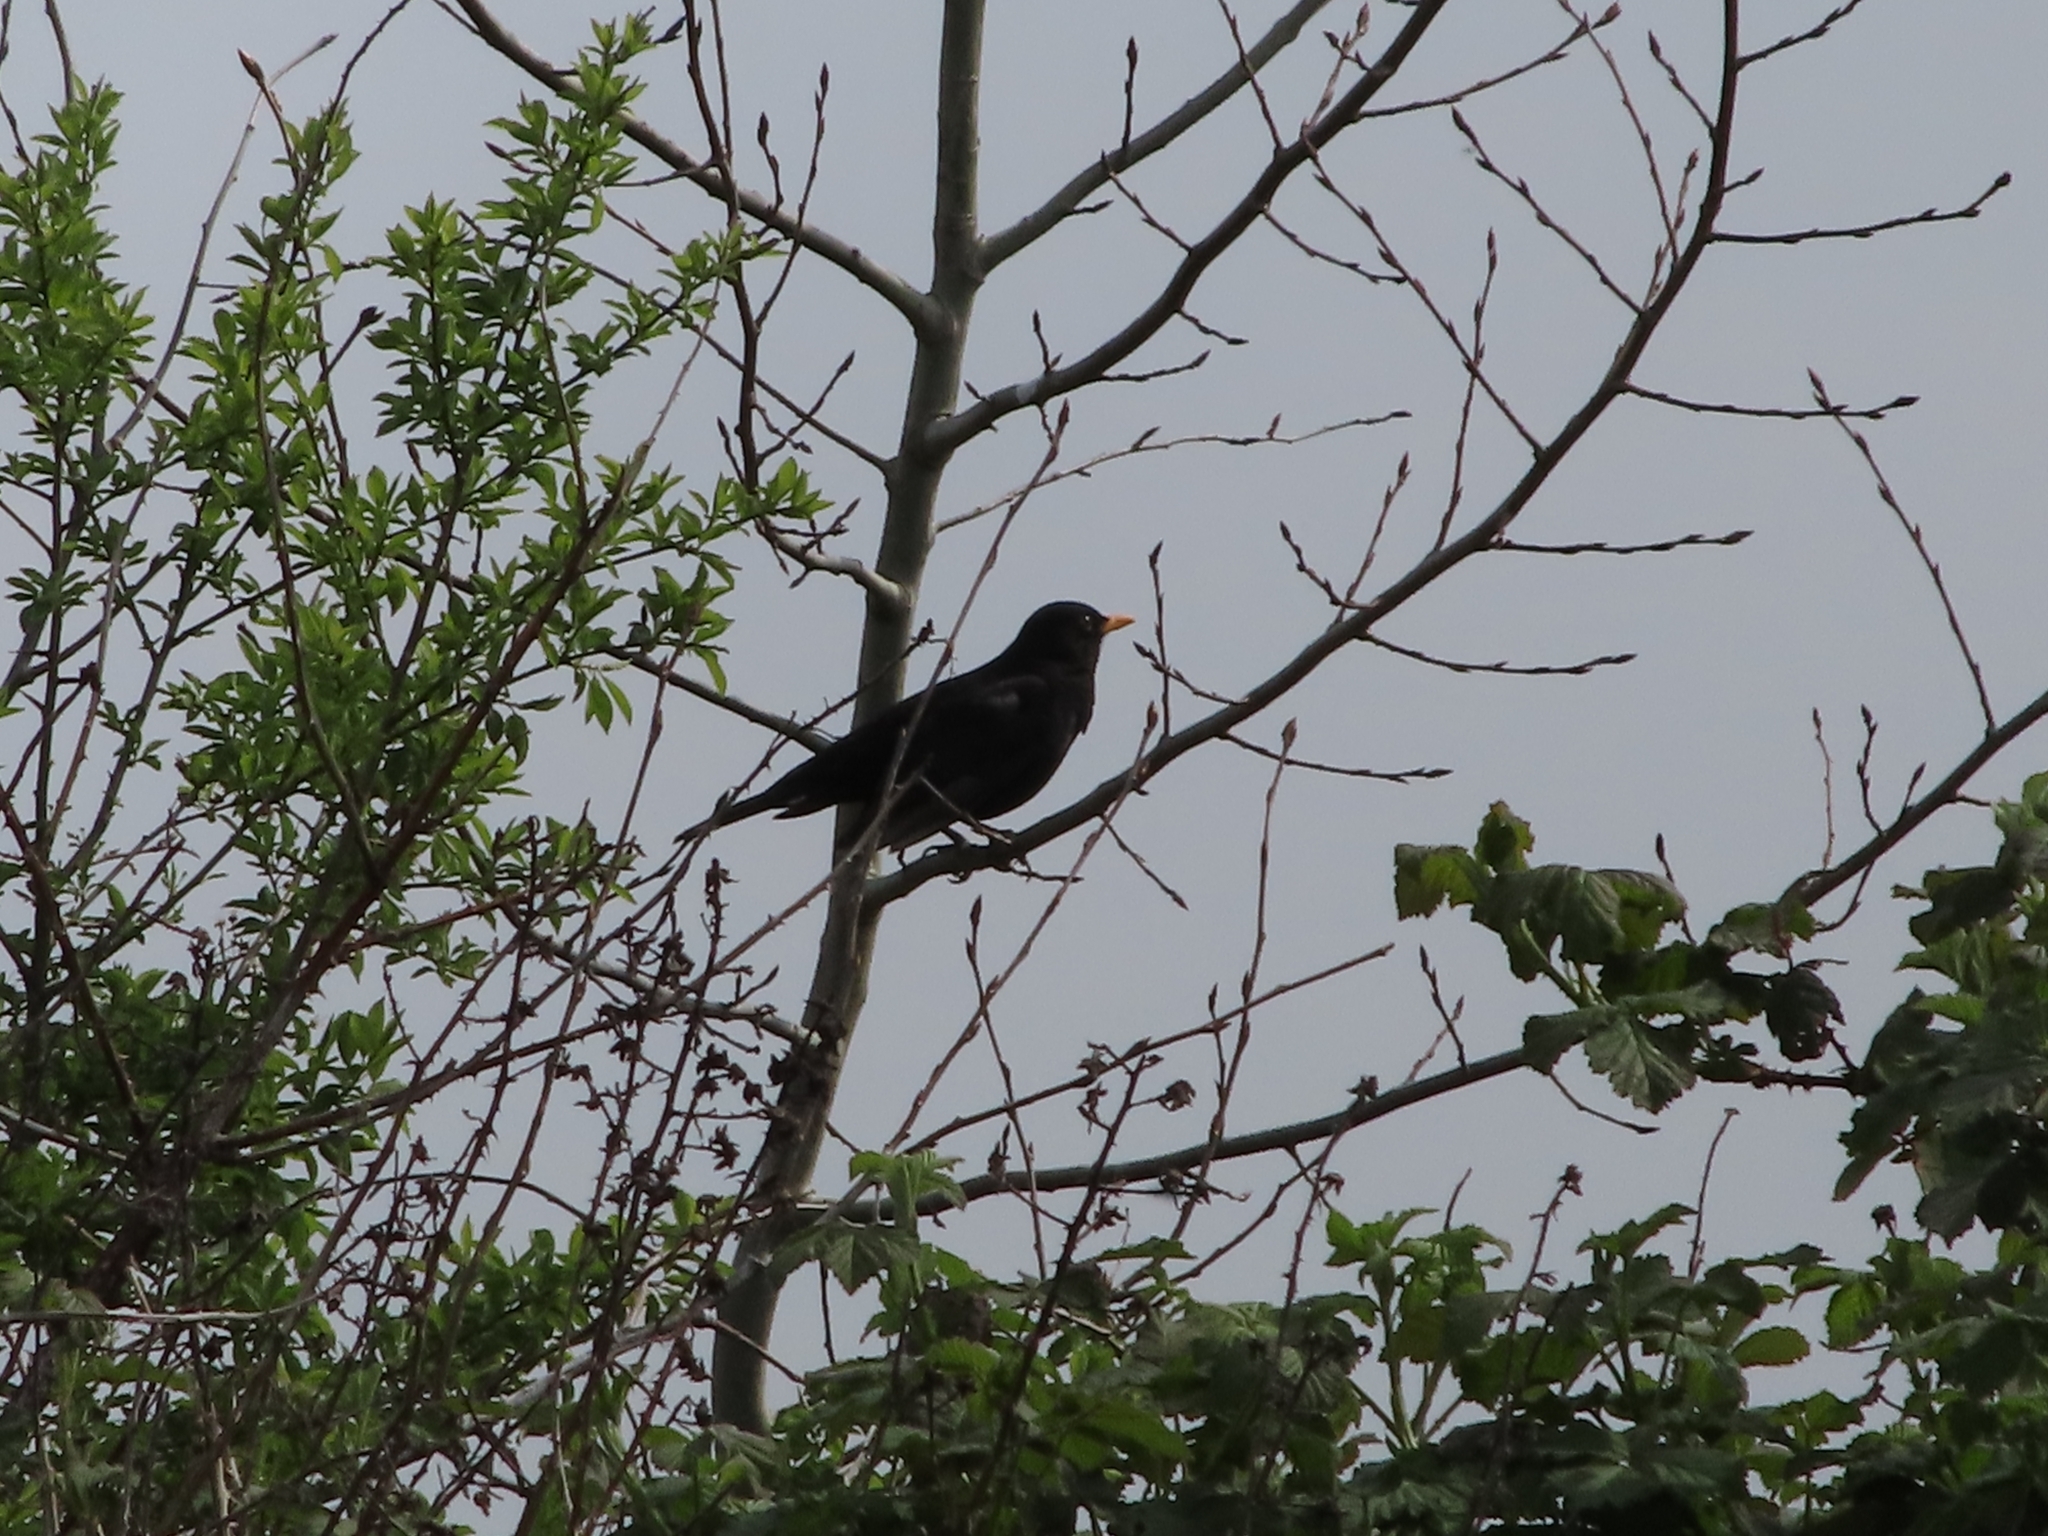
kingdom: Animalia
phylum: Chordata
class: Aves
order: Passeriformes
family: Turdidae
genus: Turdus
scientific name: Turdus merula
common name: Common blackbird
